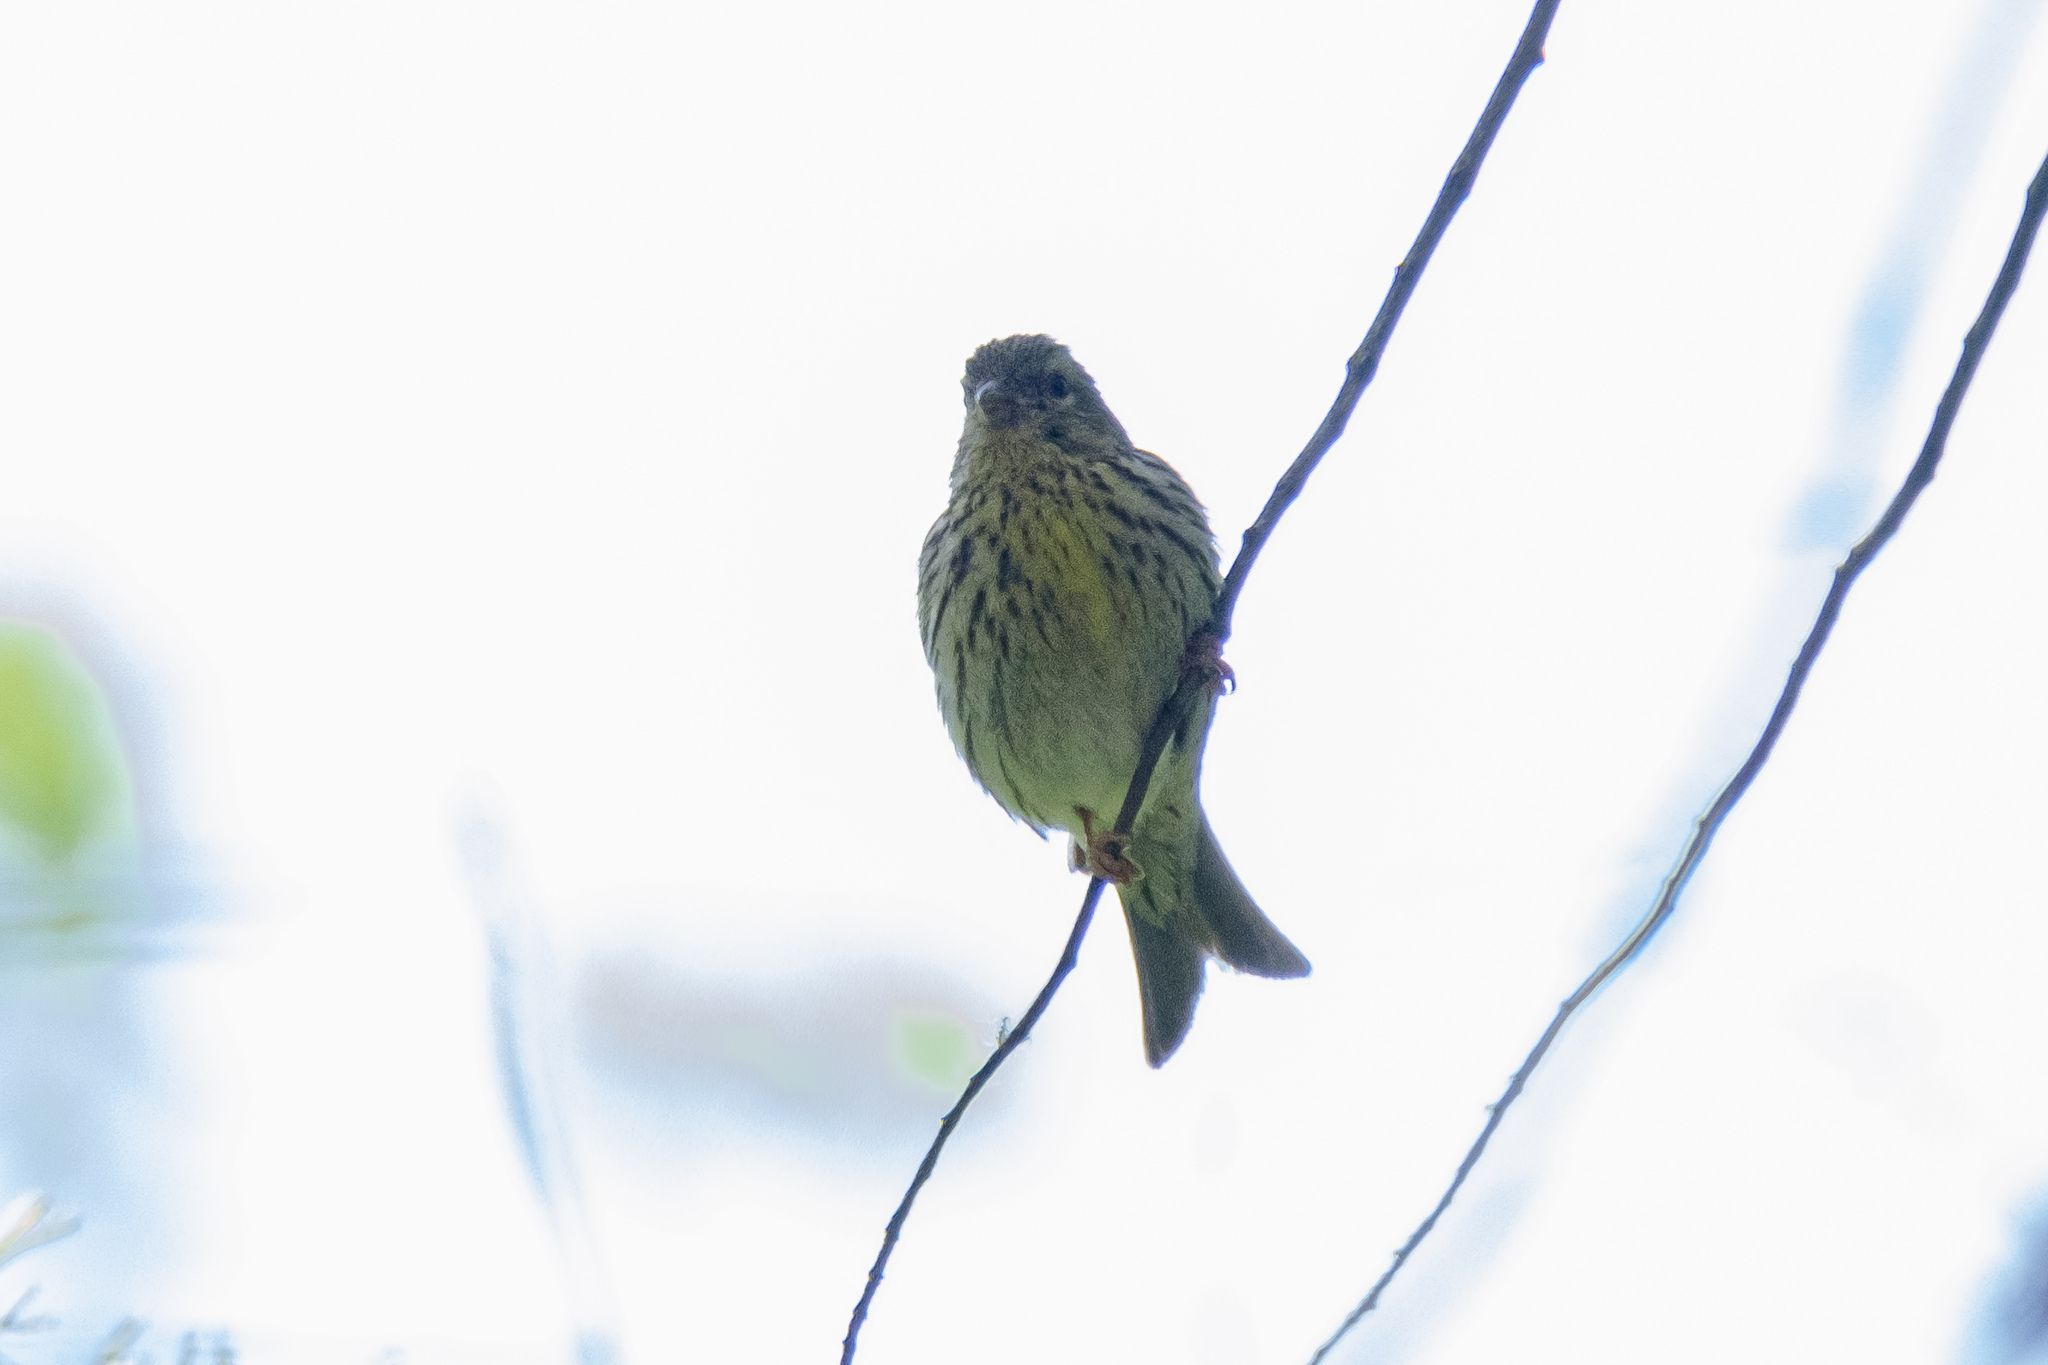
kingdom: Animalia
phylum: Chordata
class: Aves
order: Passeriformes
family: Fringillidae
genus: Serinus
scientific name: Serinus serinus
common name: European serin
